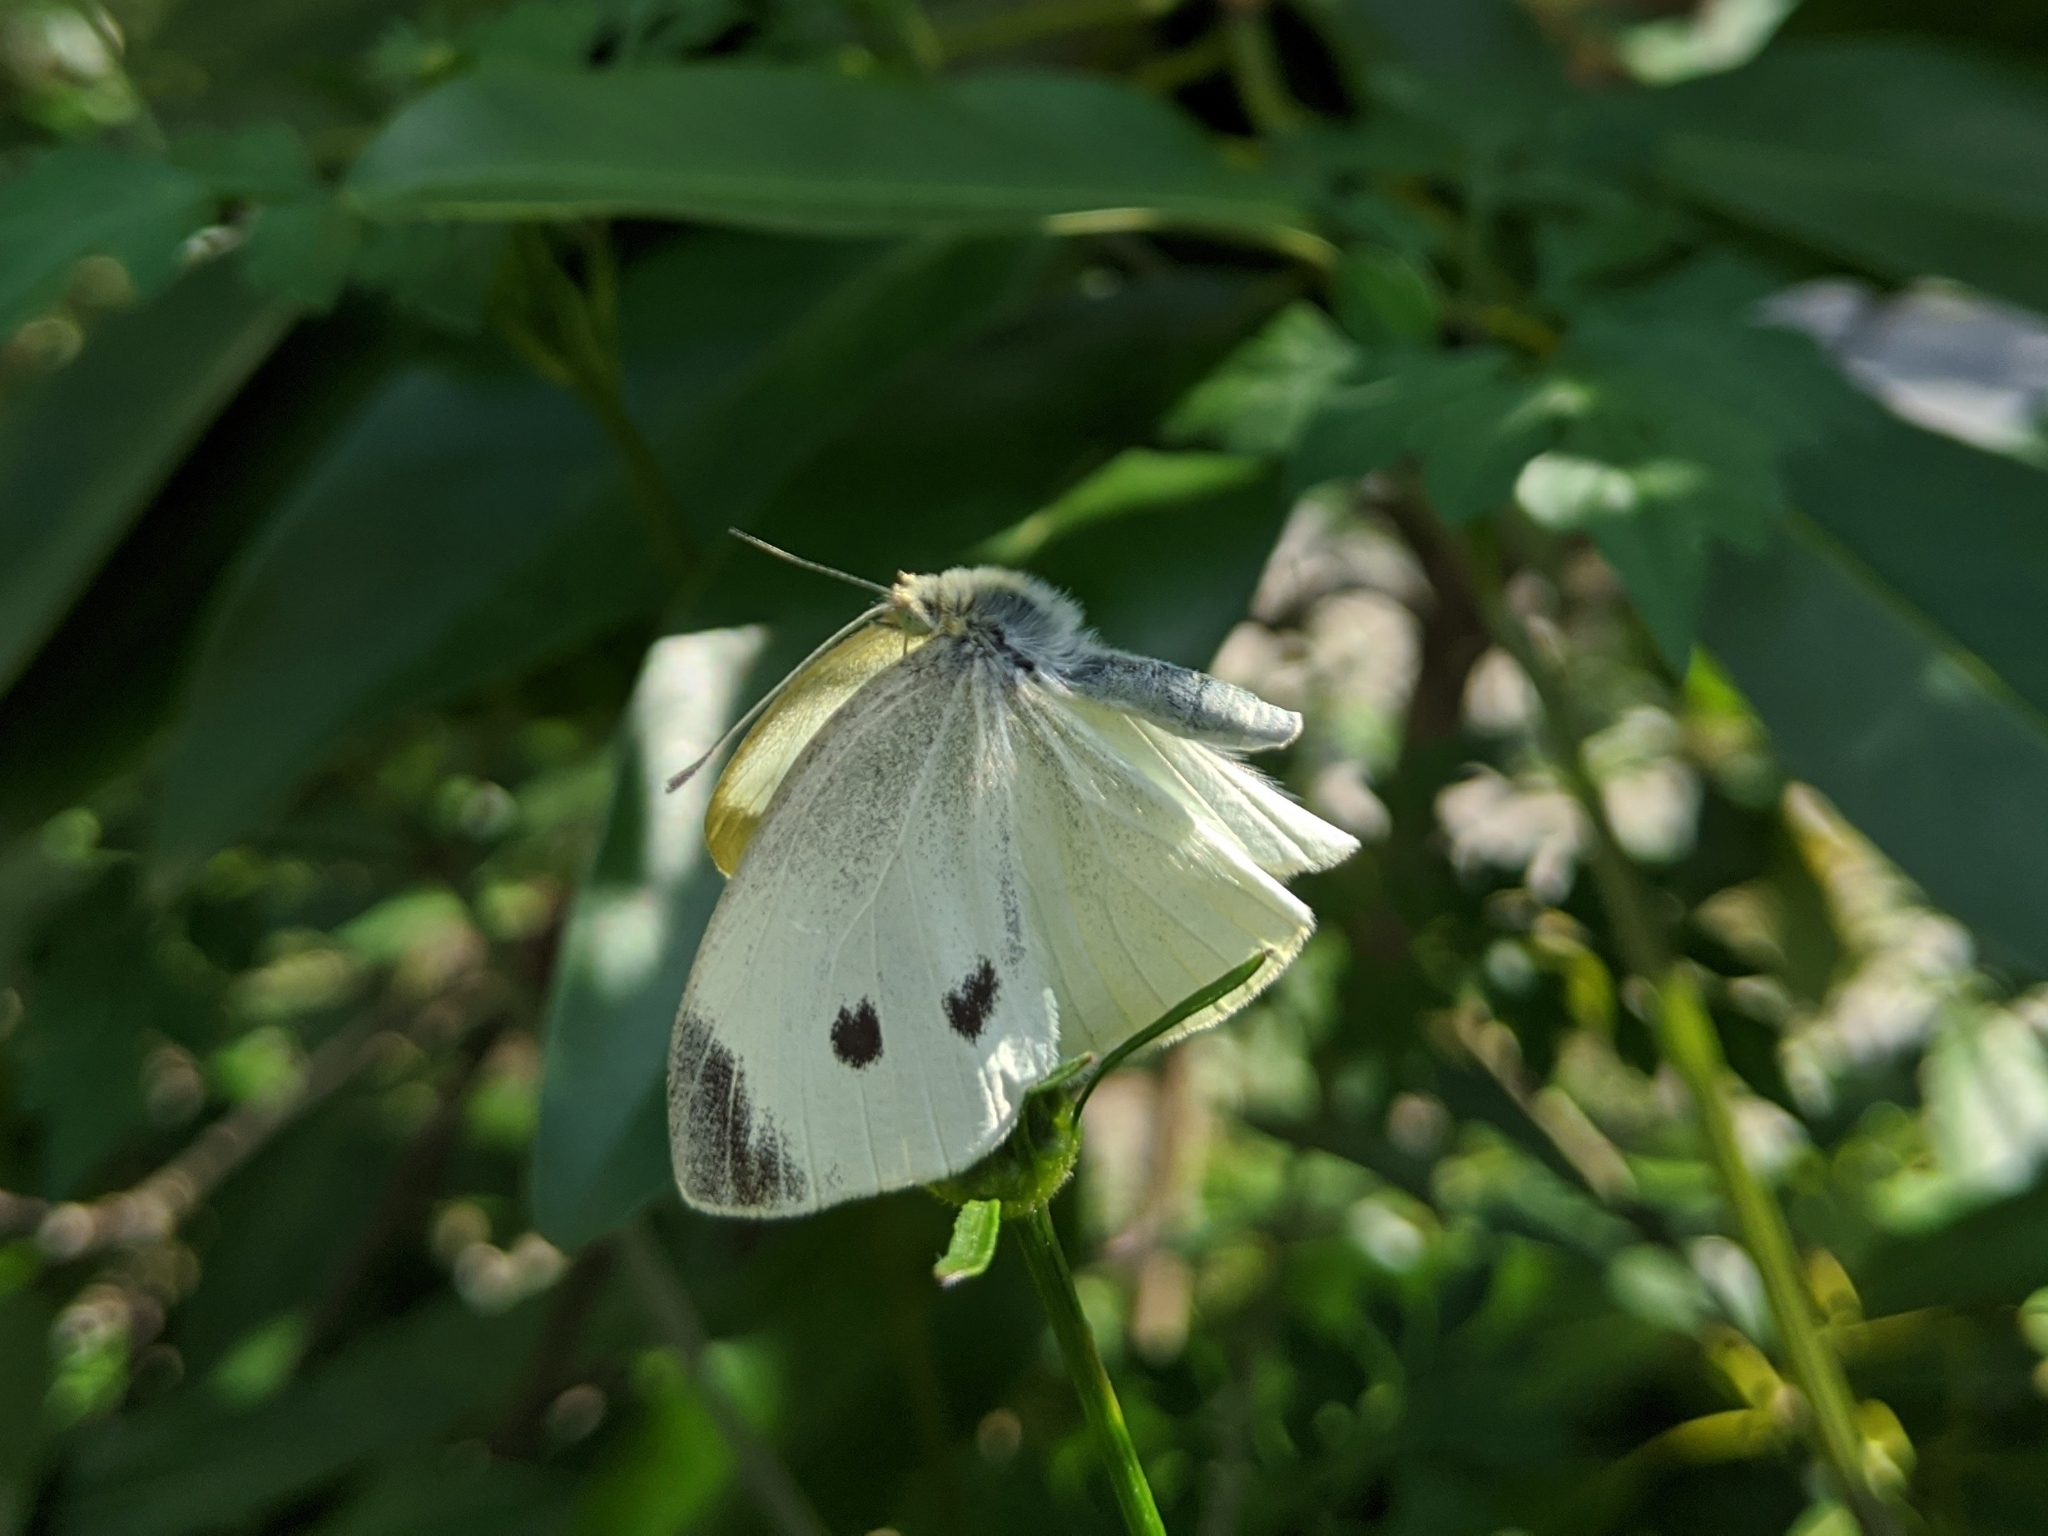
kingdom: Animalia
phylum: Arthropoda
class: Insecta
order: Lepidoptera
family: Pieridae
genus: Pieris
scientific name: Pieris rapae
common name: Small white
